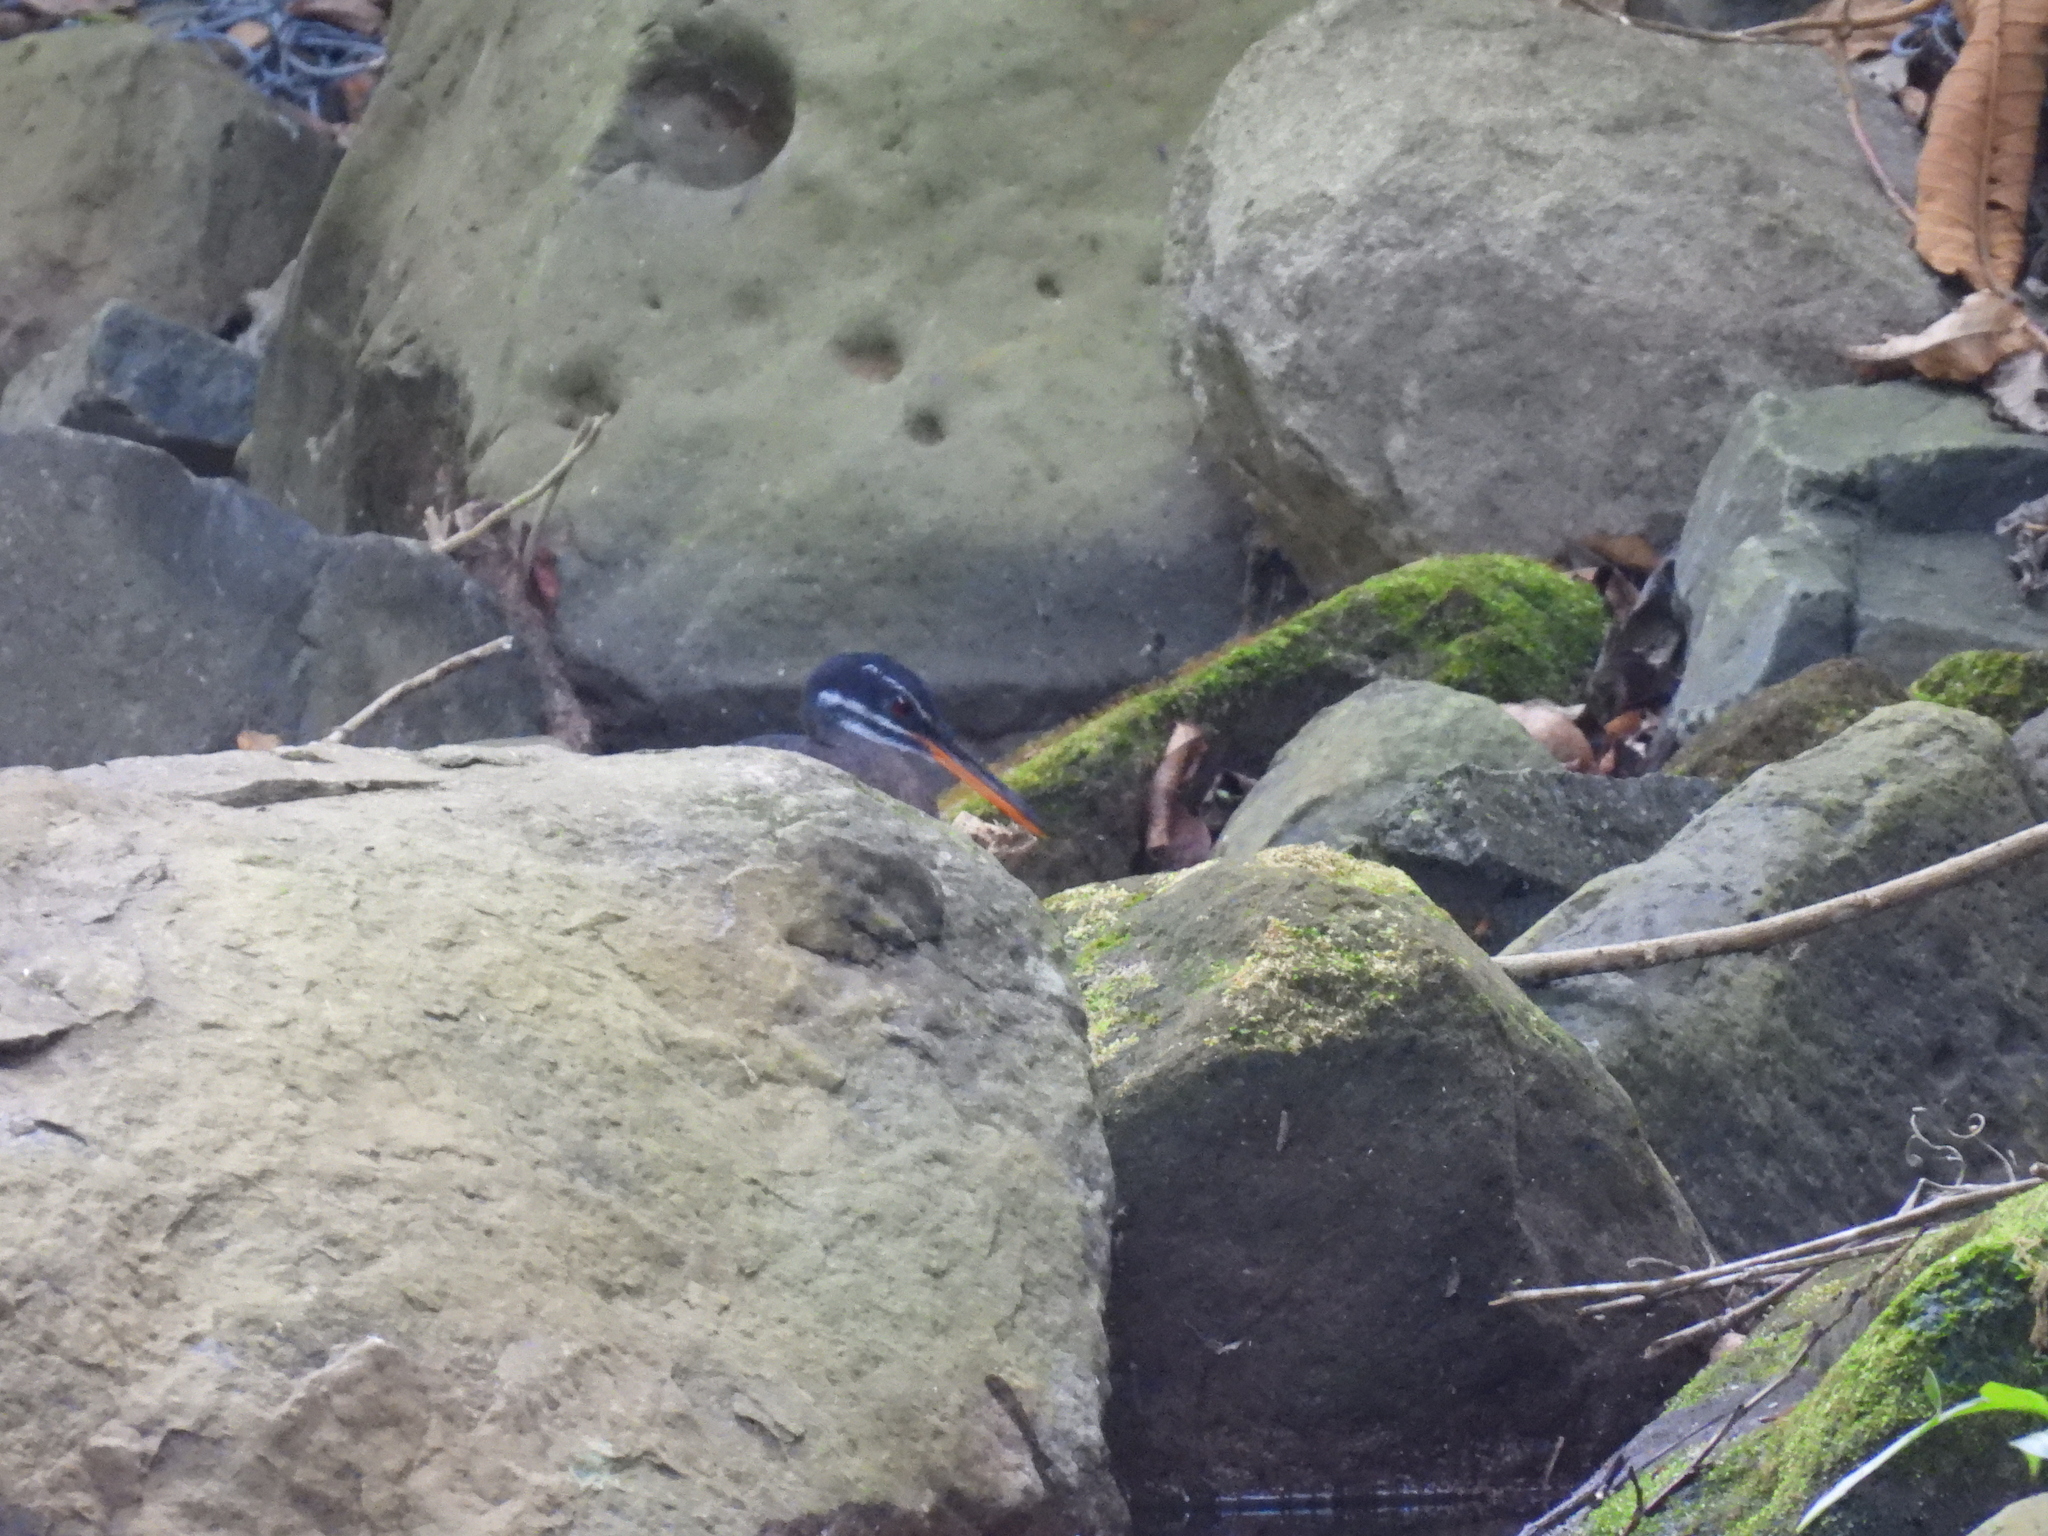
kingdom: Animalia
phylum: Chordata
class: Aves
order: Eurypygiformes
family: Eurypygidae
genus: Eurypyga
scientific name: Eurypyga helias
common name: Sunbittern
